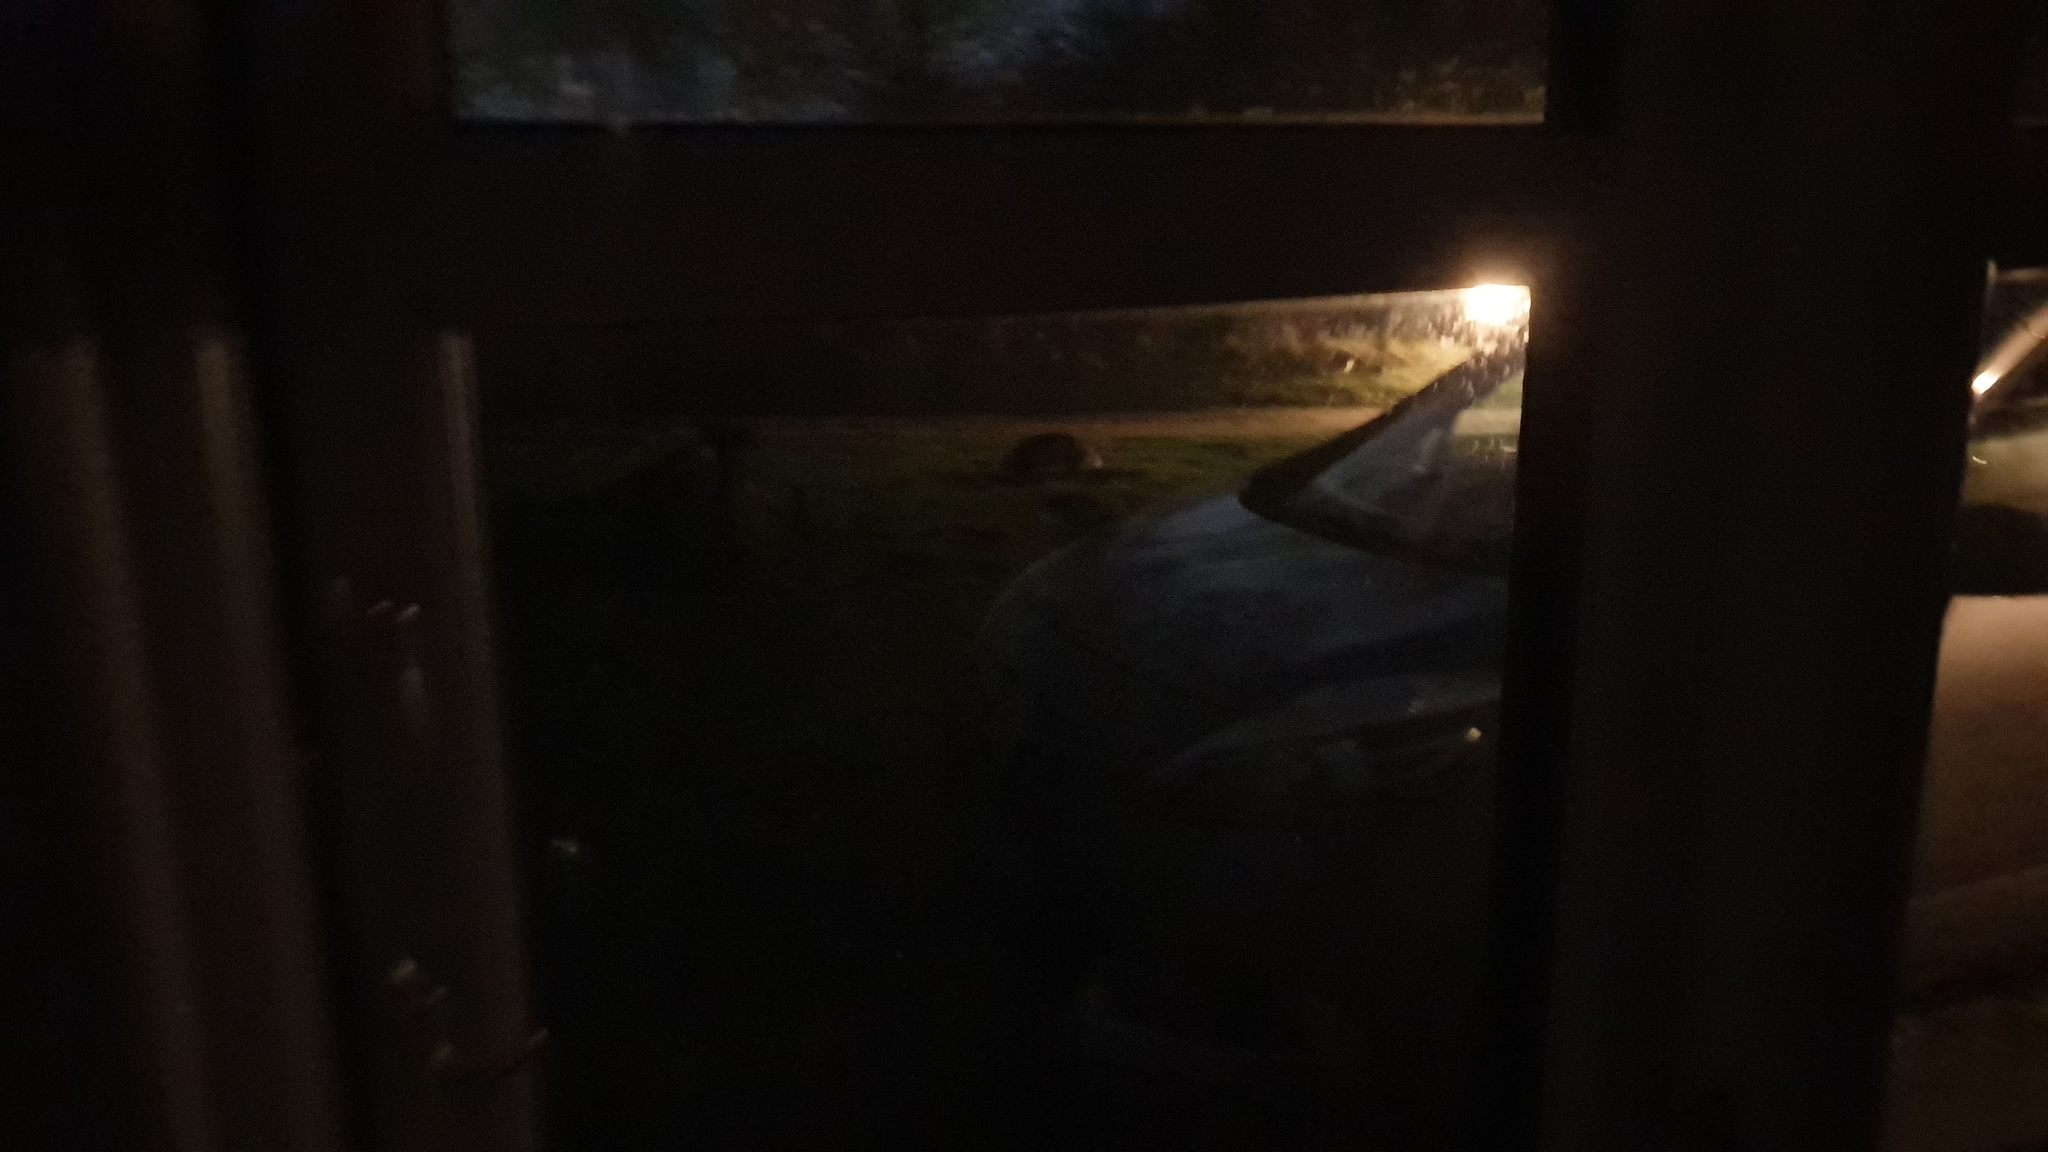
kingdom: Animalia
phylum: Chordata
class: Mammalia
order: Carnivora
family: Mustelidae
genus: Meles
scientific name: Meles meles
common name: Eurasian badger
